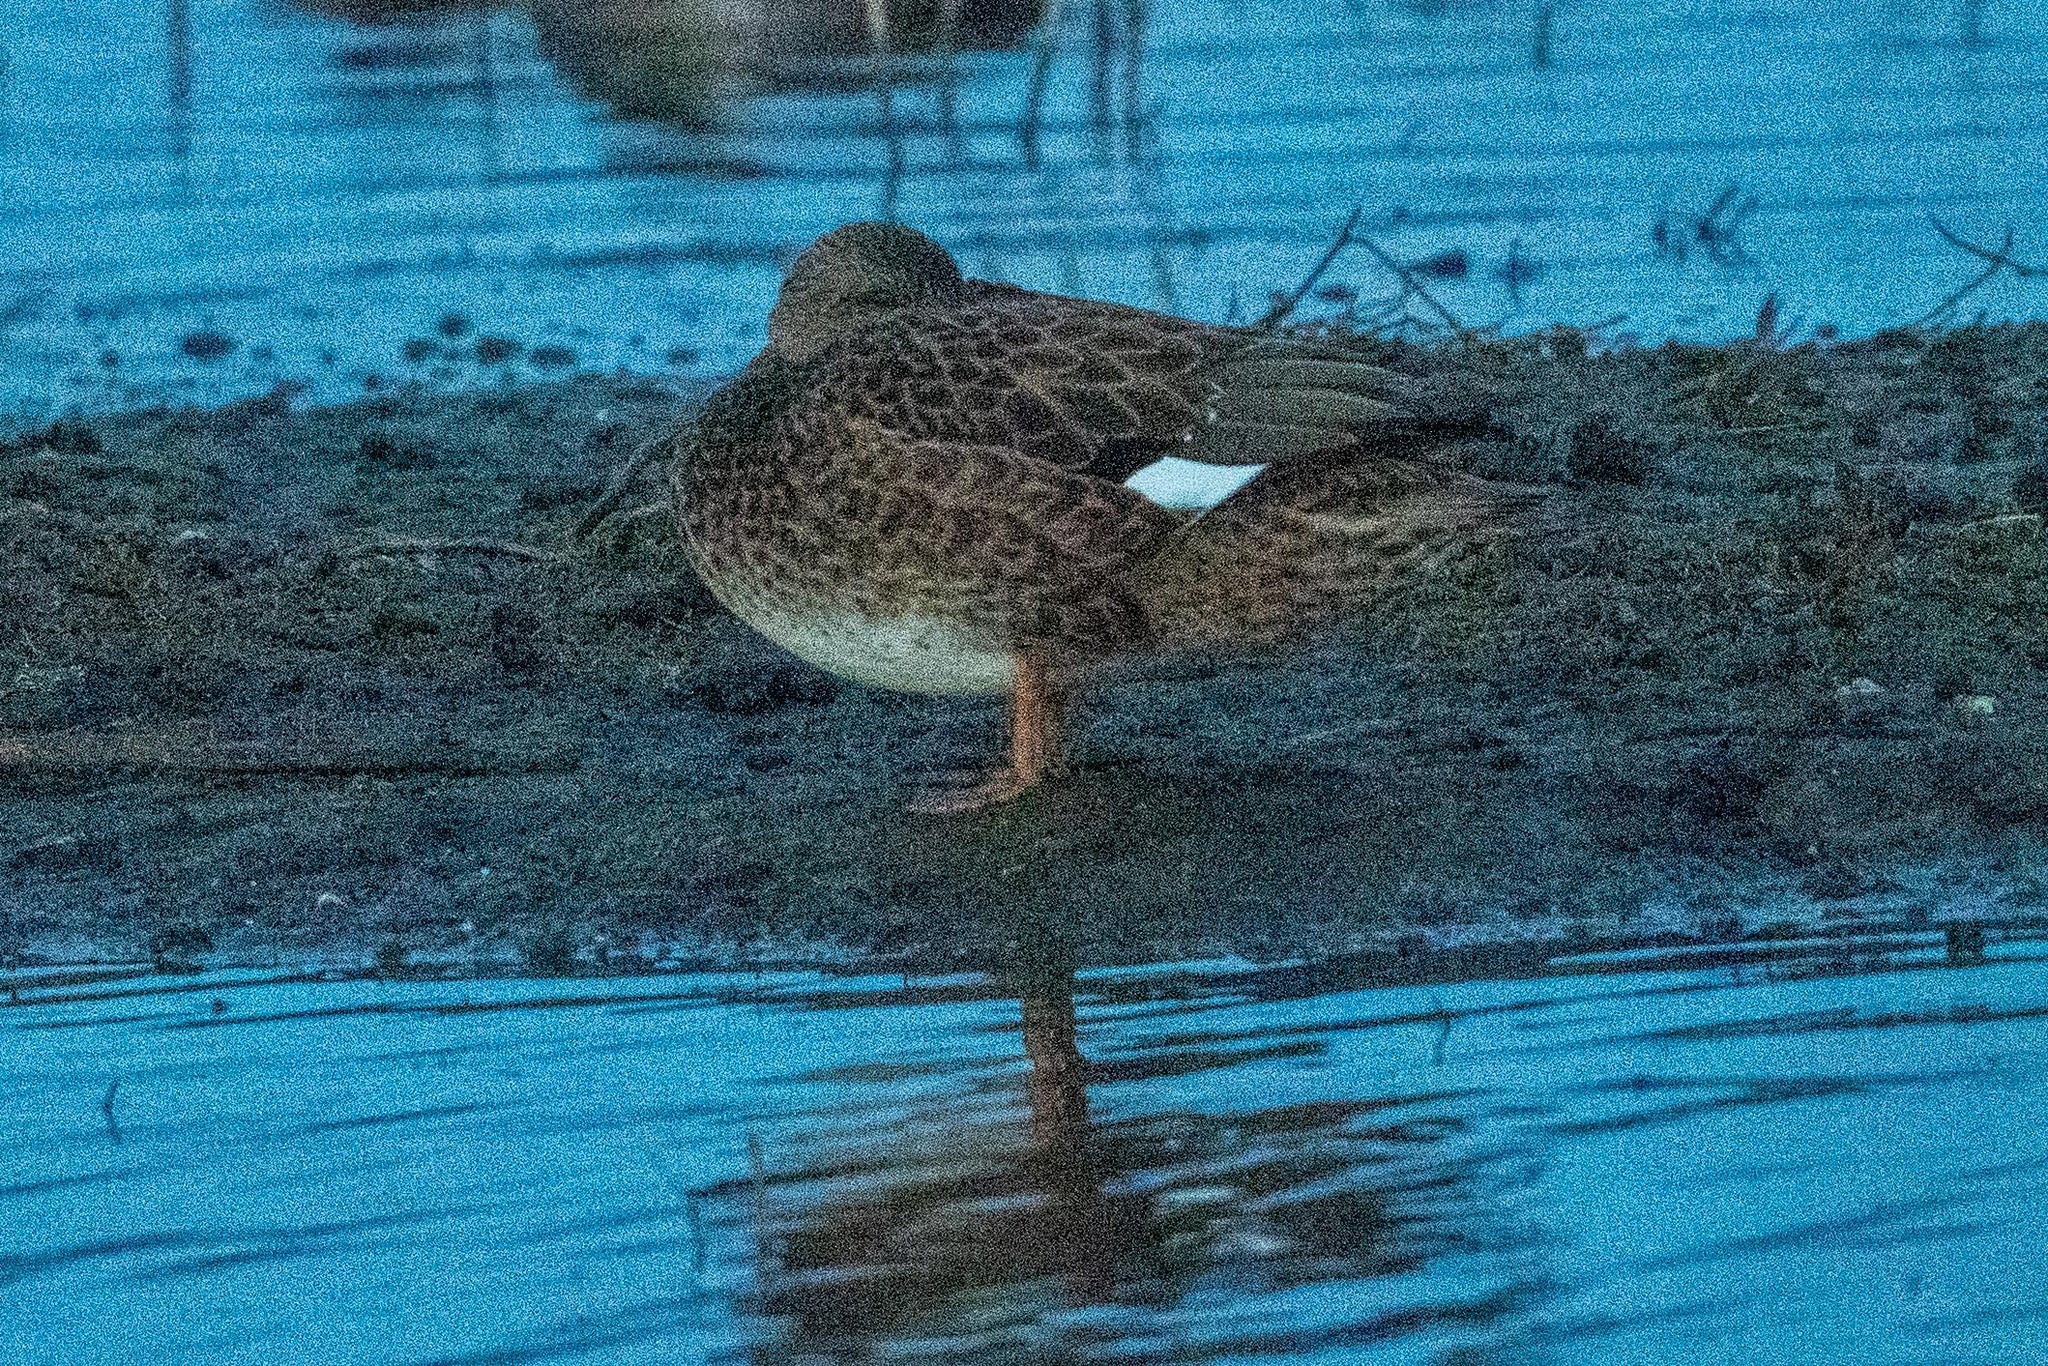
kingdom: Animalia
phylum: Chordata
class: Aves
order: Anseriformes
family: Anatidae
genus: Mareca
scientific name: Mareca strepera
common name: Gadwall
